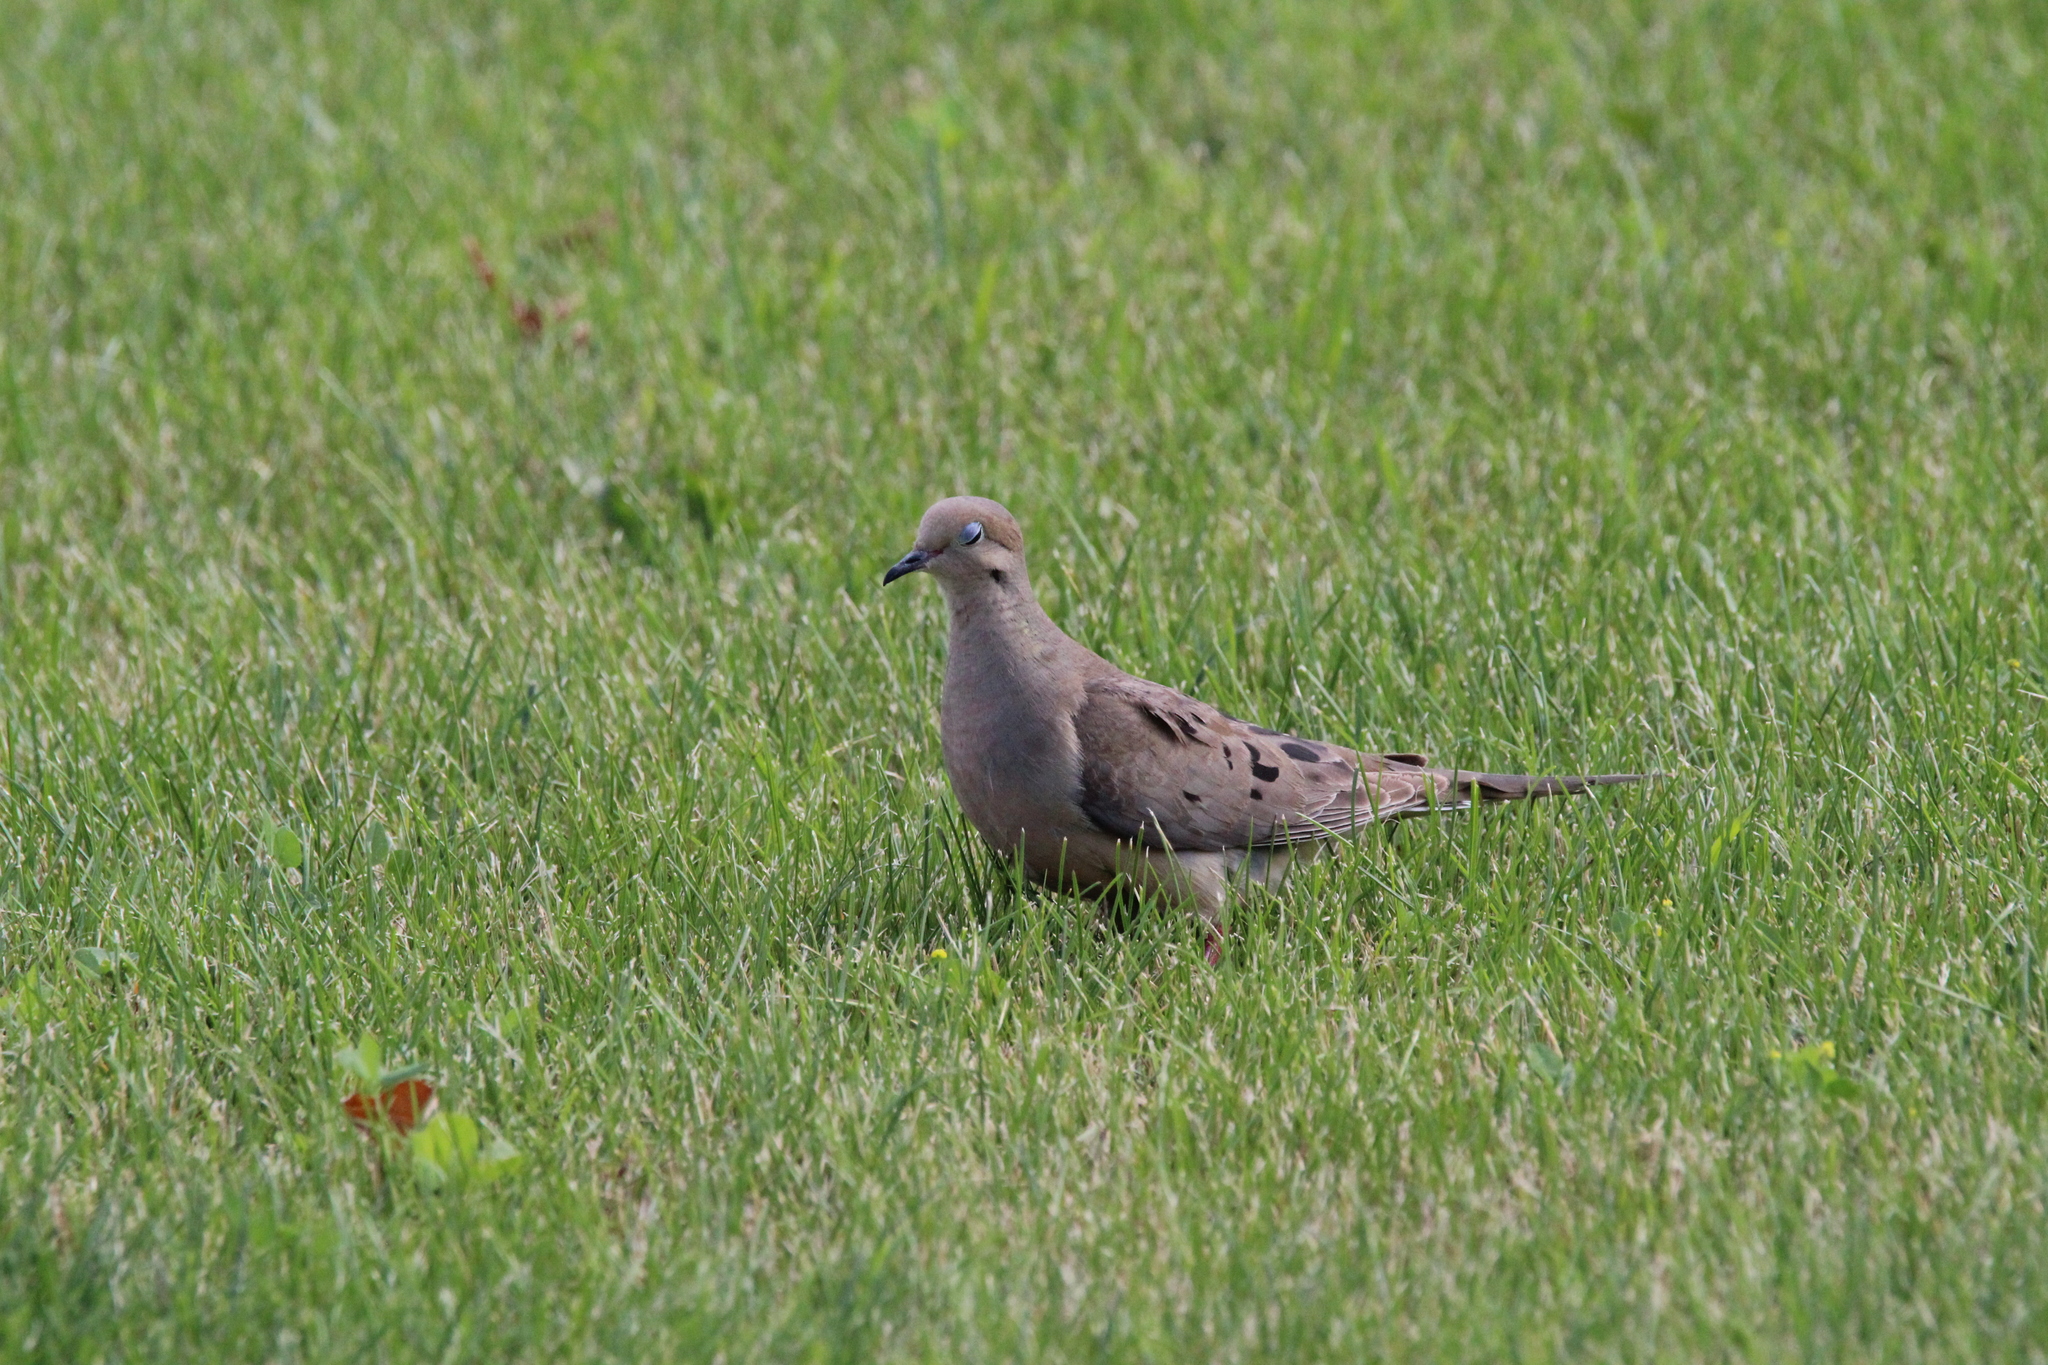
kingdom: Animalia
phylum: Chordata
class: Aves
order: Columbiformes
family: Columbidae
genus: Zenaida
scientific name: Zenaida macroura
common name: Mourning dove
